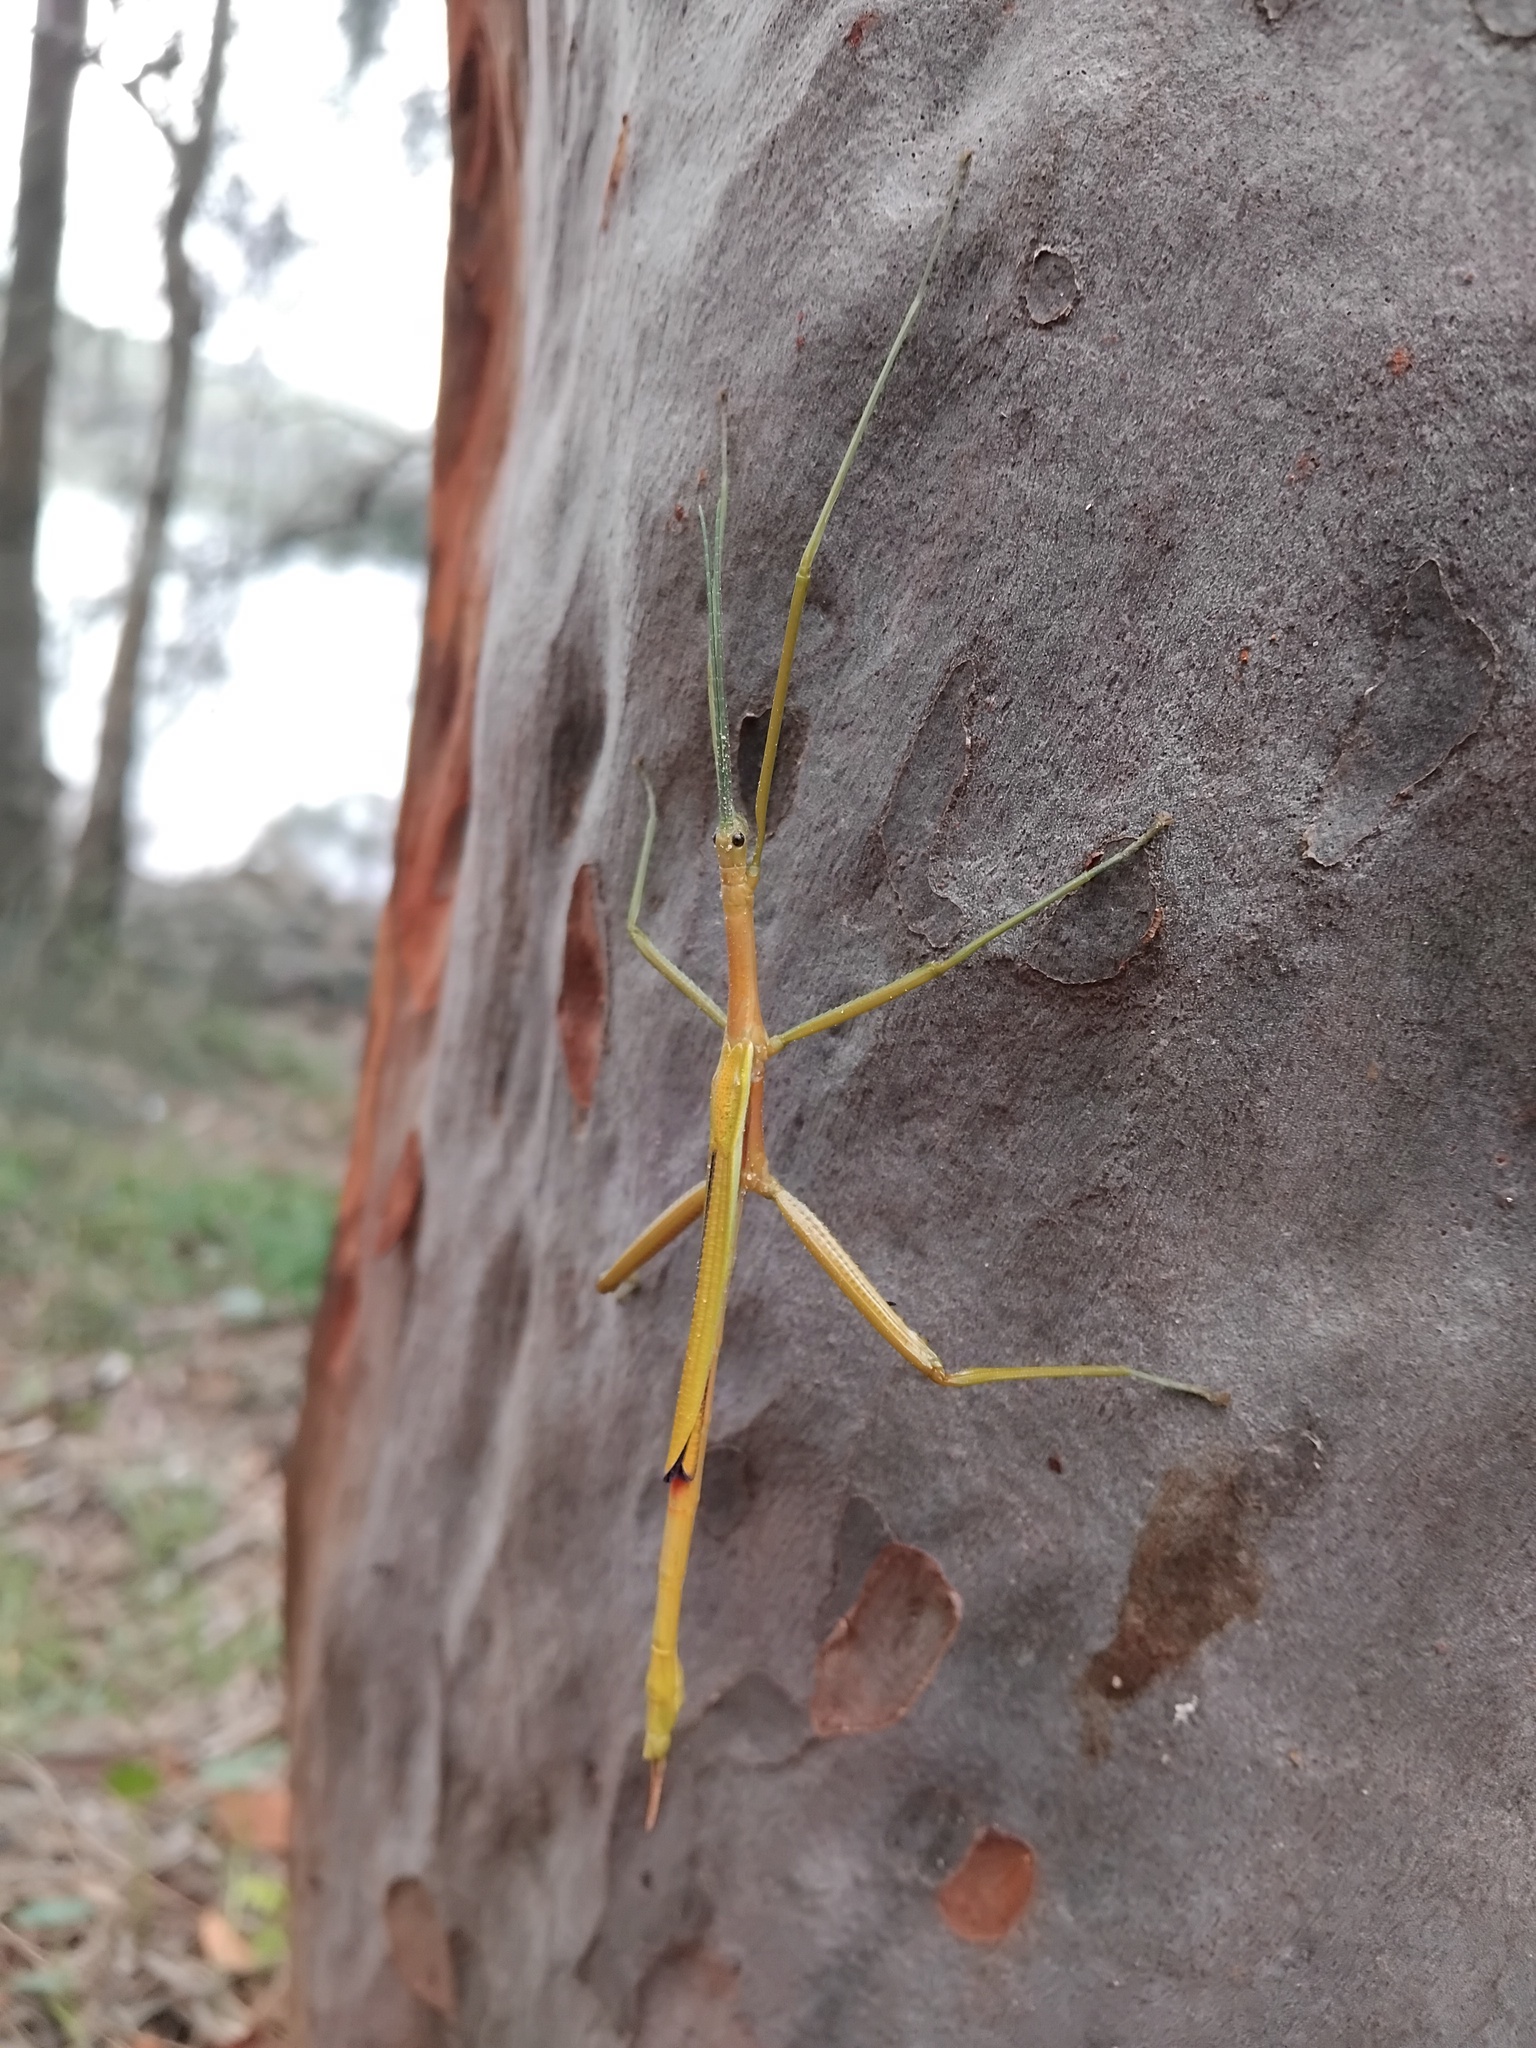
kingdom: Animalia
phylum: Arthropoda
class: Insecta
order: Phasmida
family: Phasmatidae
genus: Didymuria
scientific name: Didymuria violescens
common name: Spur-legged stick-insect
